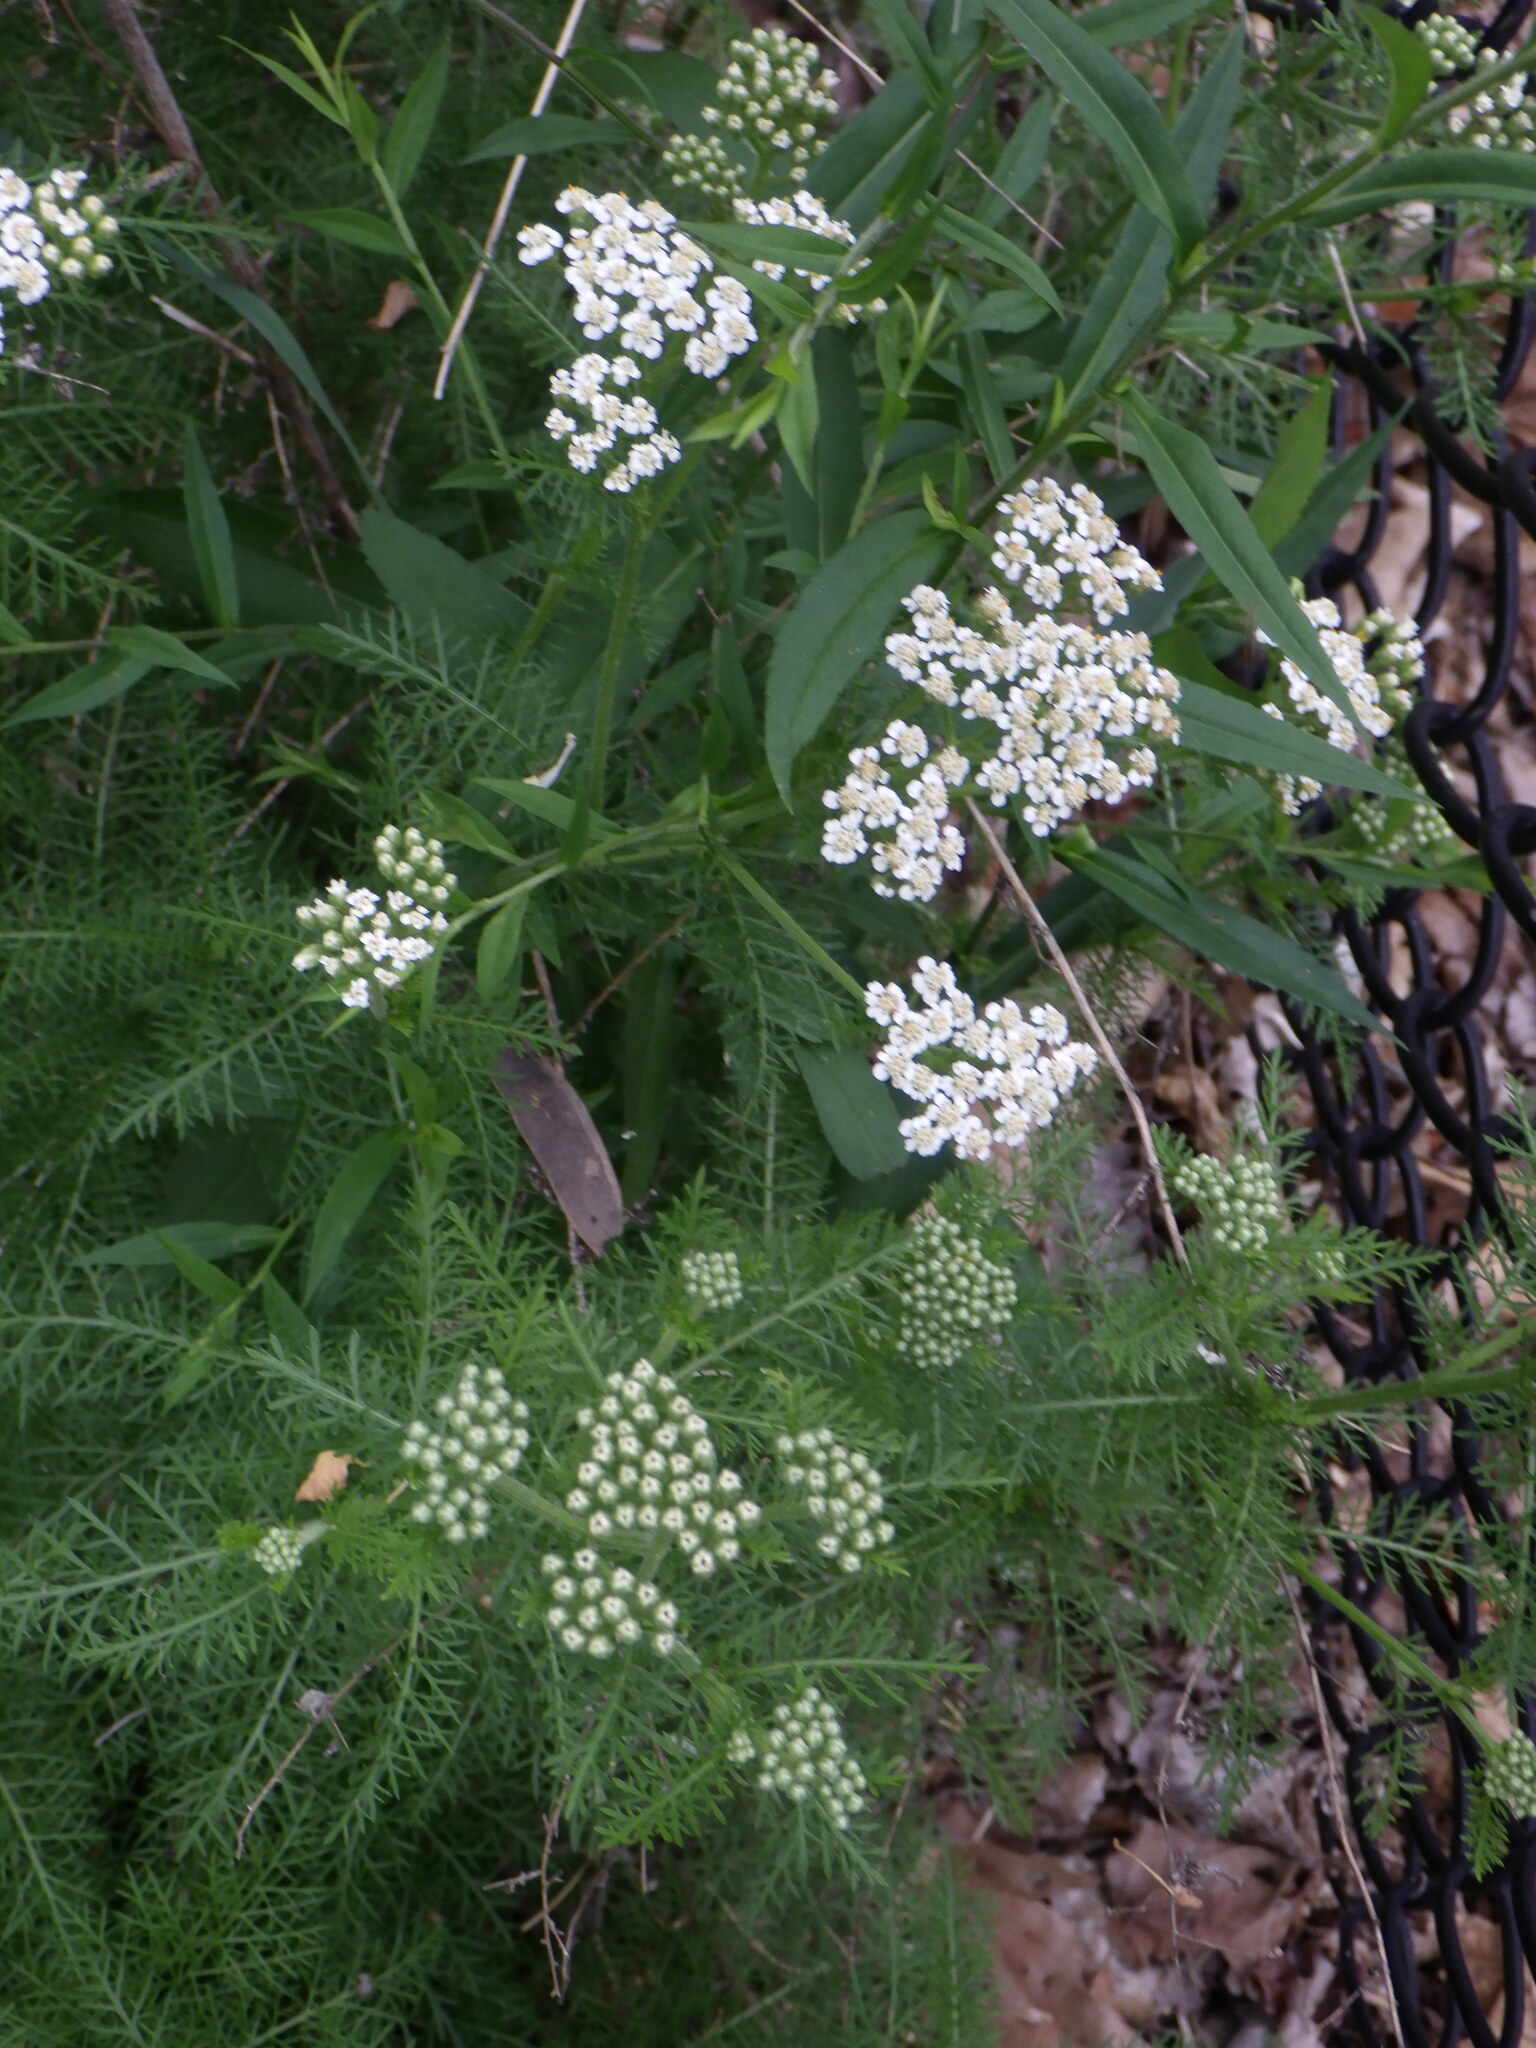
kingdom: Plantae
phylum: Tracheophyta
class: Magnoliopsida
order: Asterales
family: Asteraceae
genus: Achillea
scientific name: Achillea millefolium
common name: Yarrow
